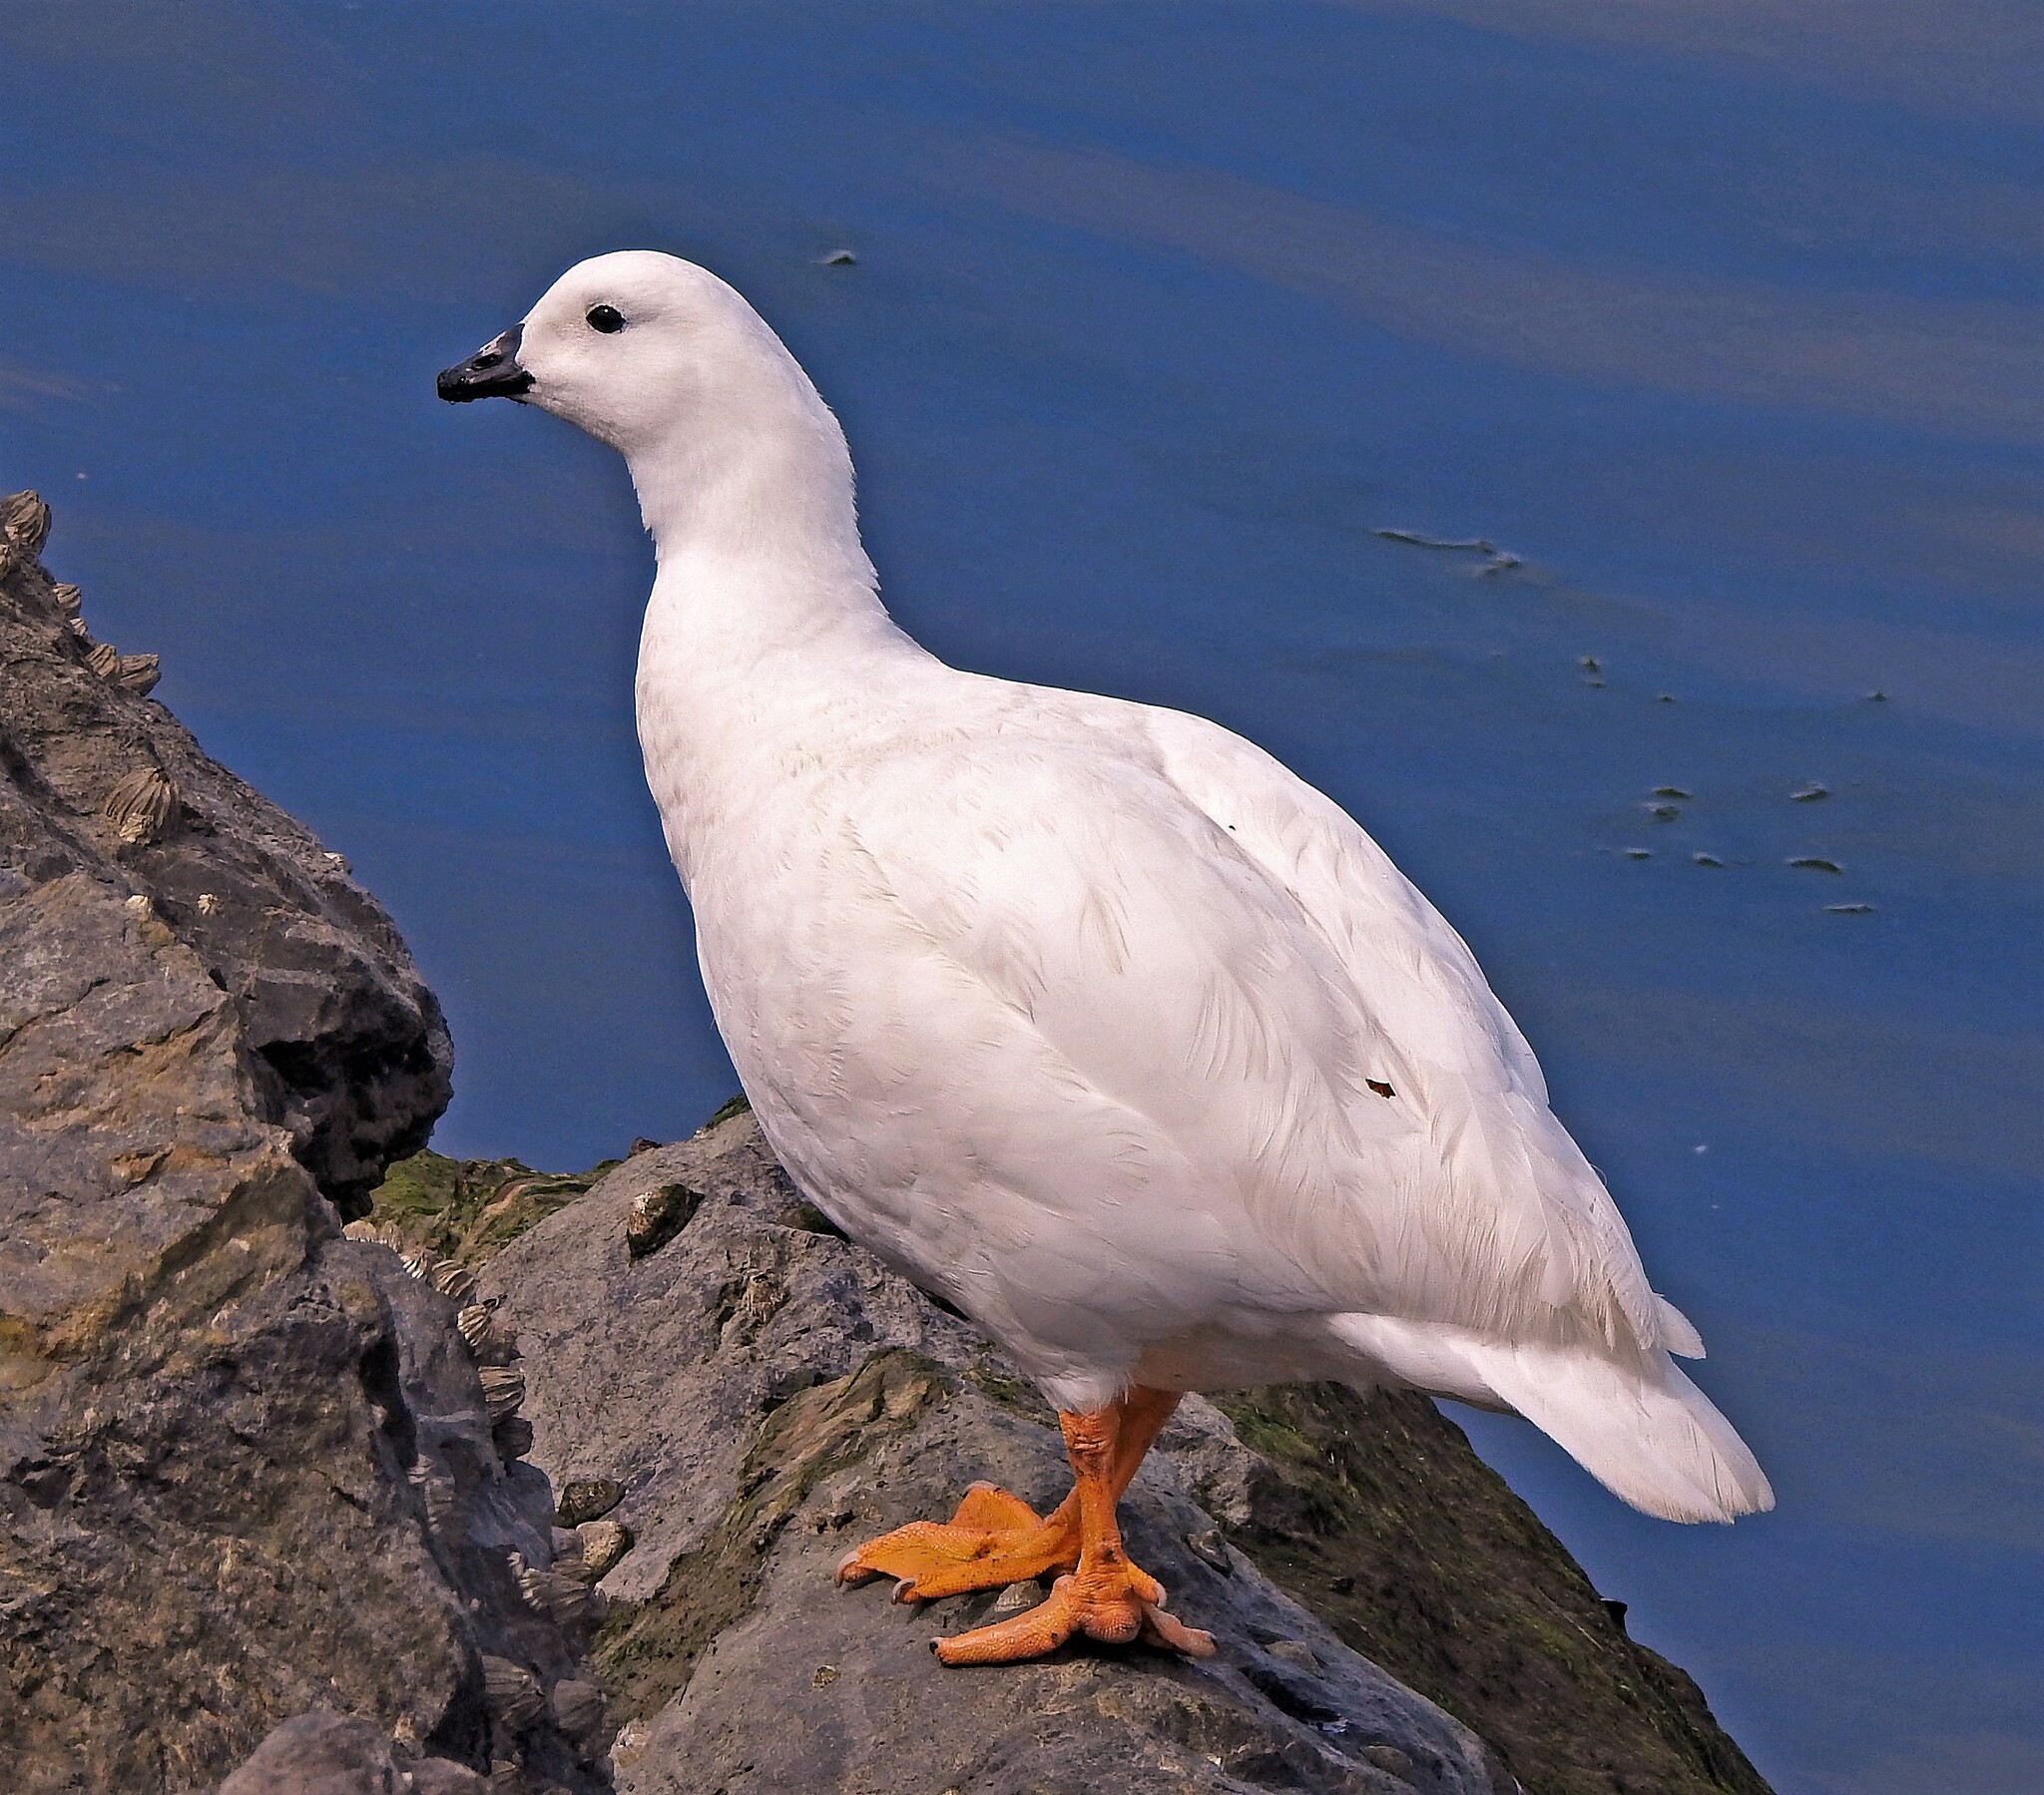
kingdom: Animalia
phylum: Chordata
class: Aves
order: Anseriformes
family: Anatidae
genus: Chloephaga
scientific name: Chloephaga hybrida
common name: Kelp goose
